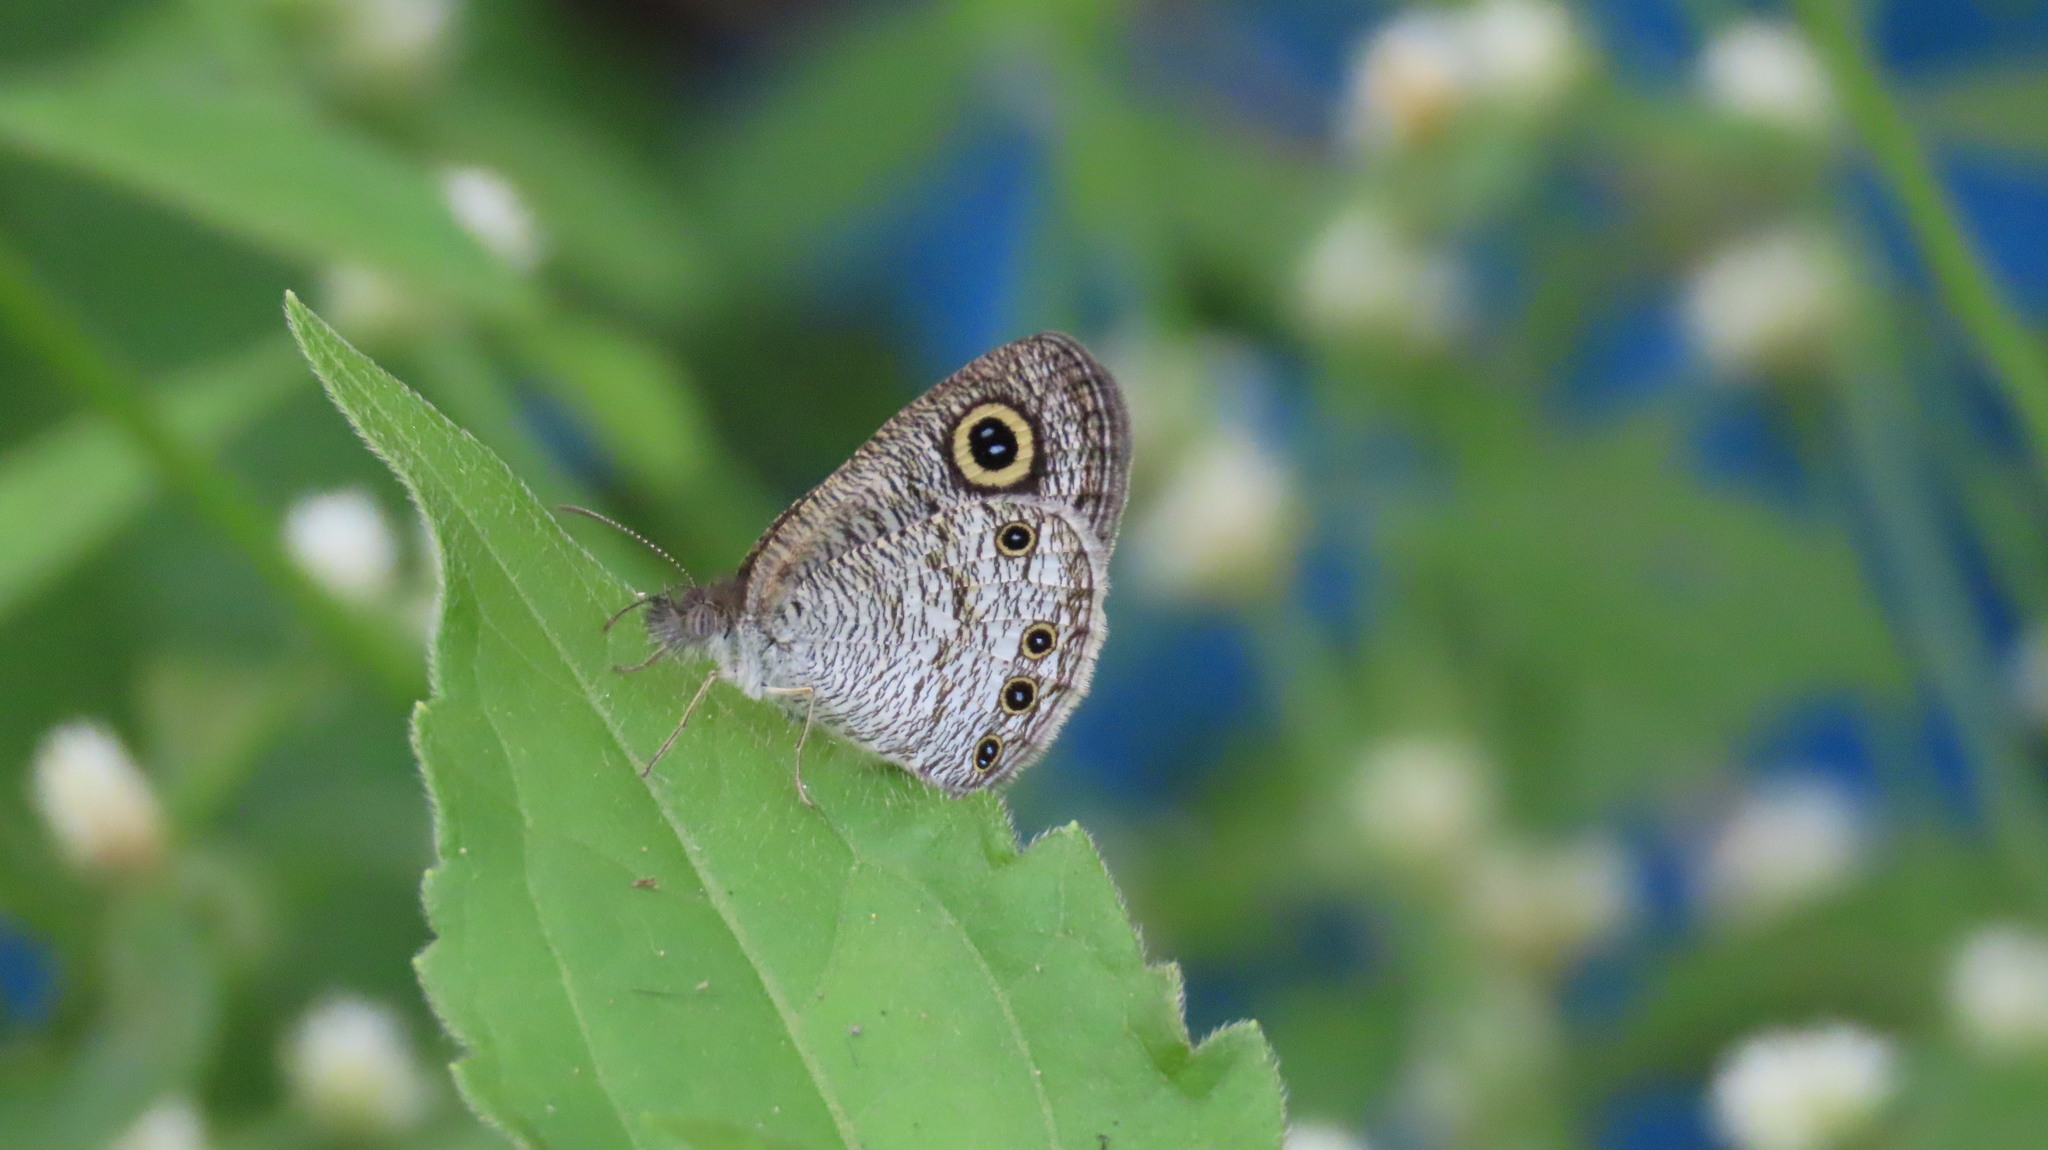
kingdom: Animalia
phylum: Arthropoda
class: Insecta
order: Lepidoptera
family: Nymphalidae
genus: Ypthima
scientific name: Ypthima huebneri
